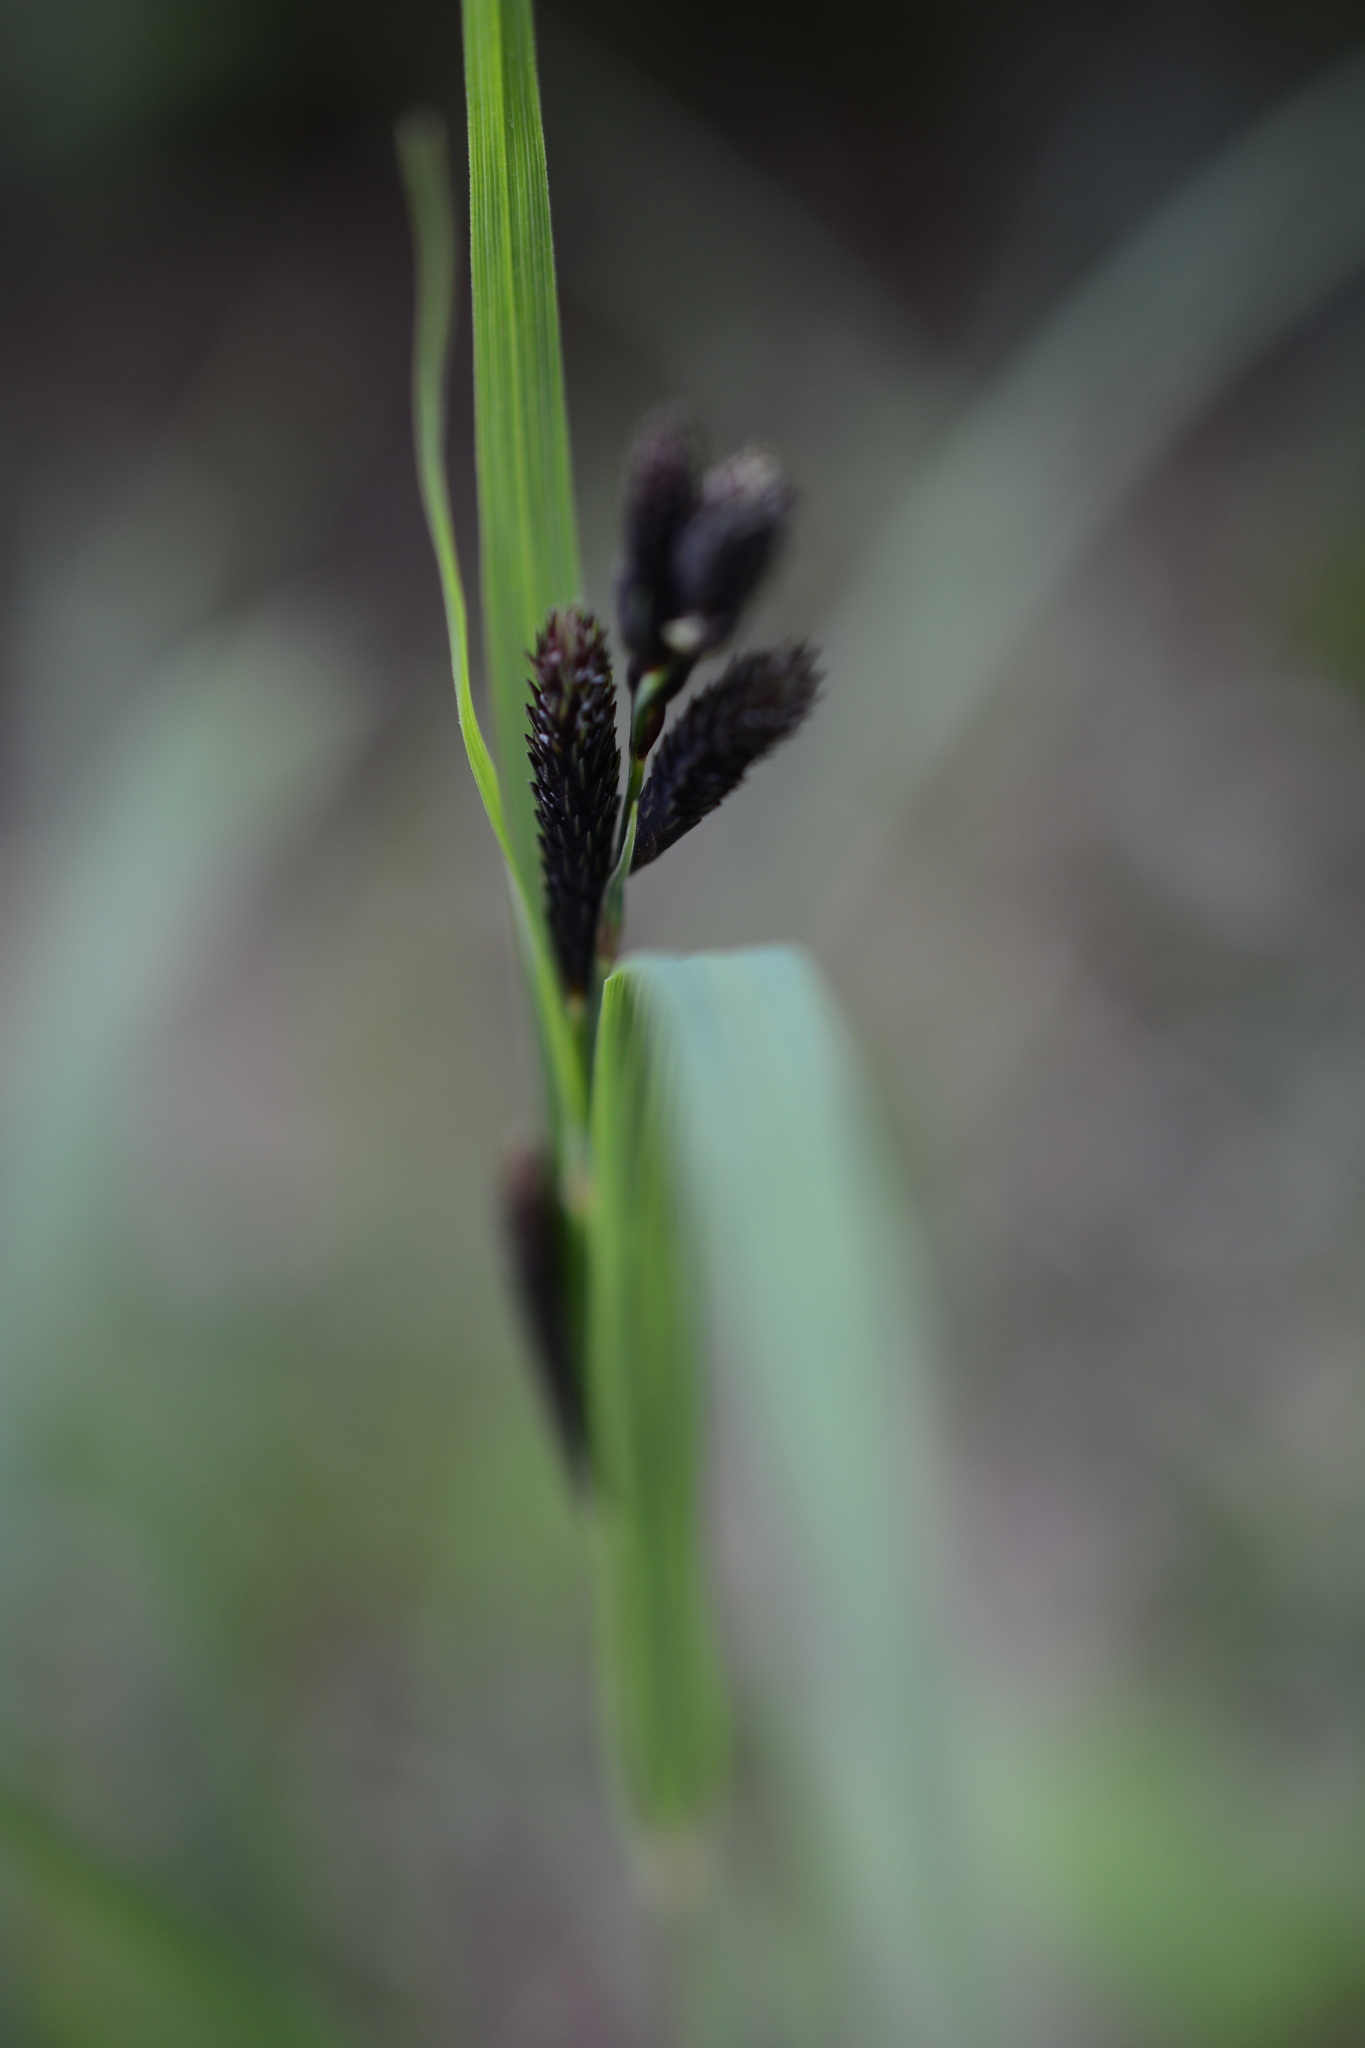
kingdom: Plantae
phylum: Tracheophyta
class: Liliopsida
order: Poales
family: Cyperaceae
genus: Carex
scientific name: Carex
